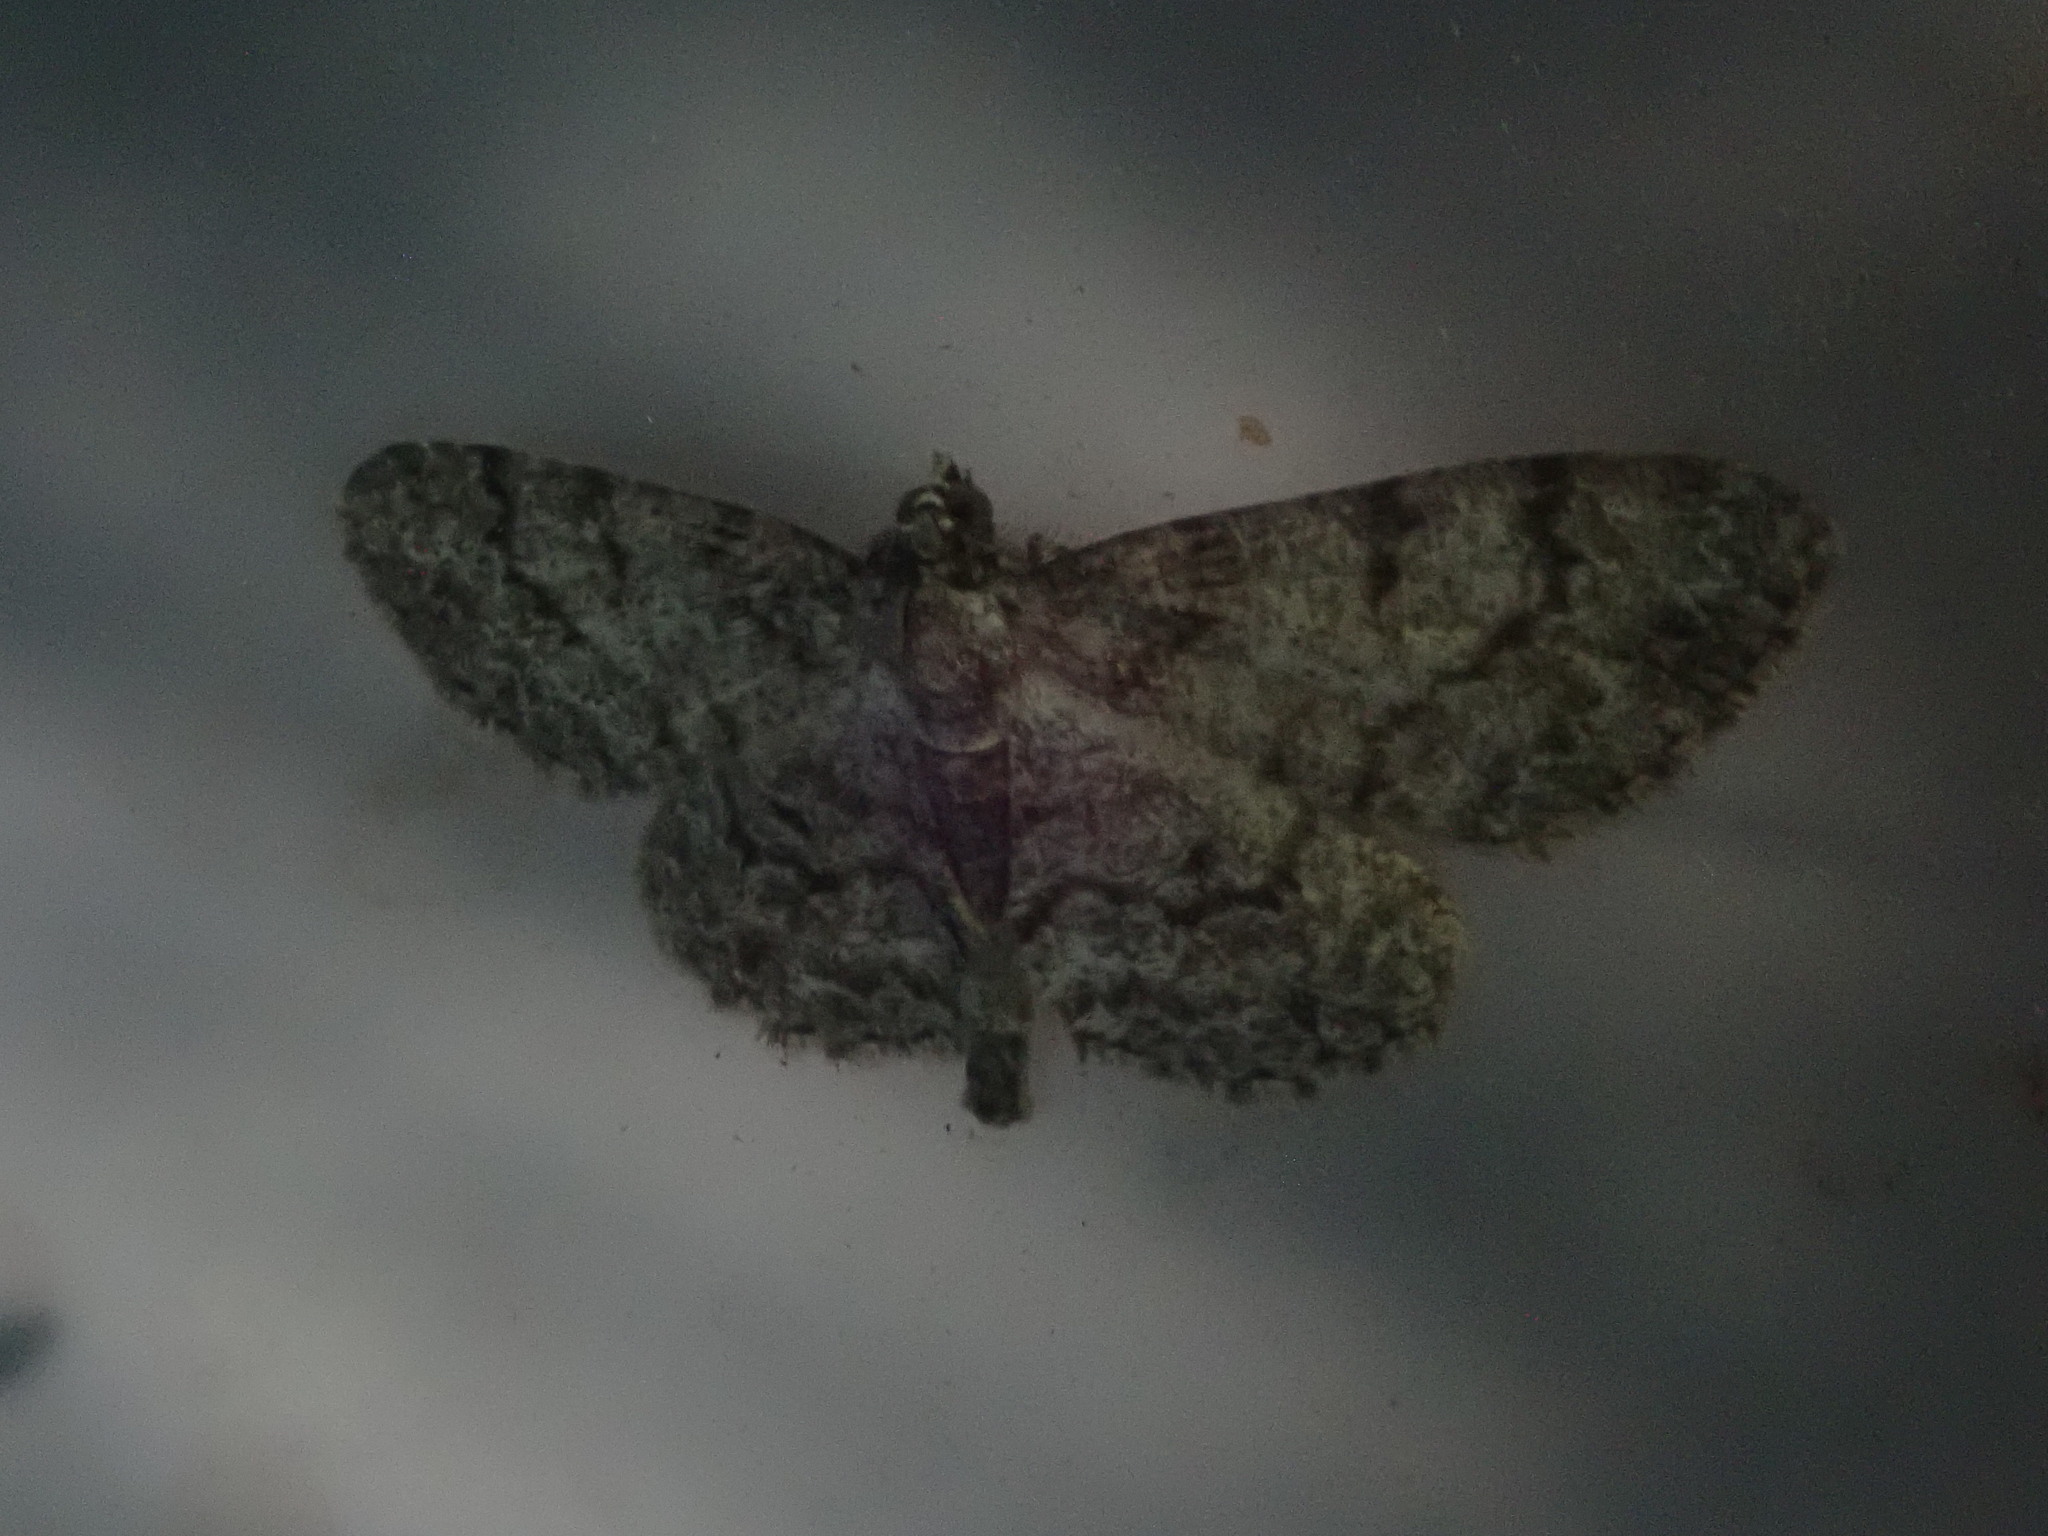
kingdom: Animalia
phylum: Arthropoda
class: Insecta
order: Lepidoptera
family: Geometridae
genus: Protoboarmia
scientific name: Protoboarmia porcelaria
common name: Porcelain gray
